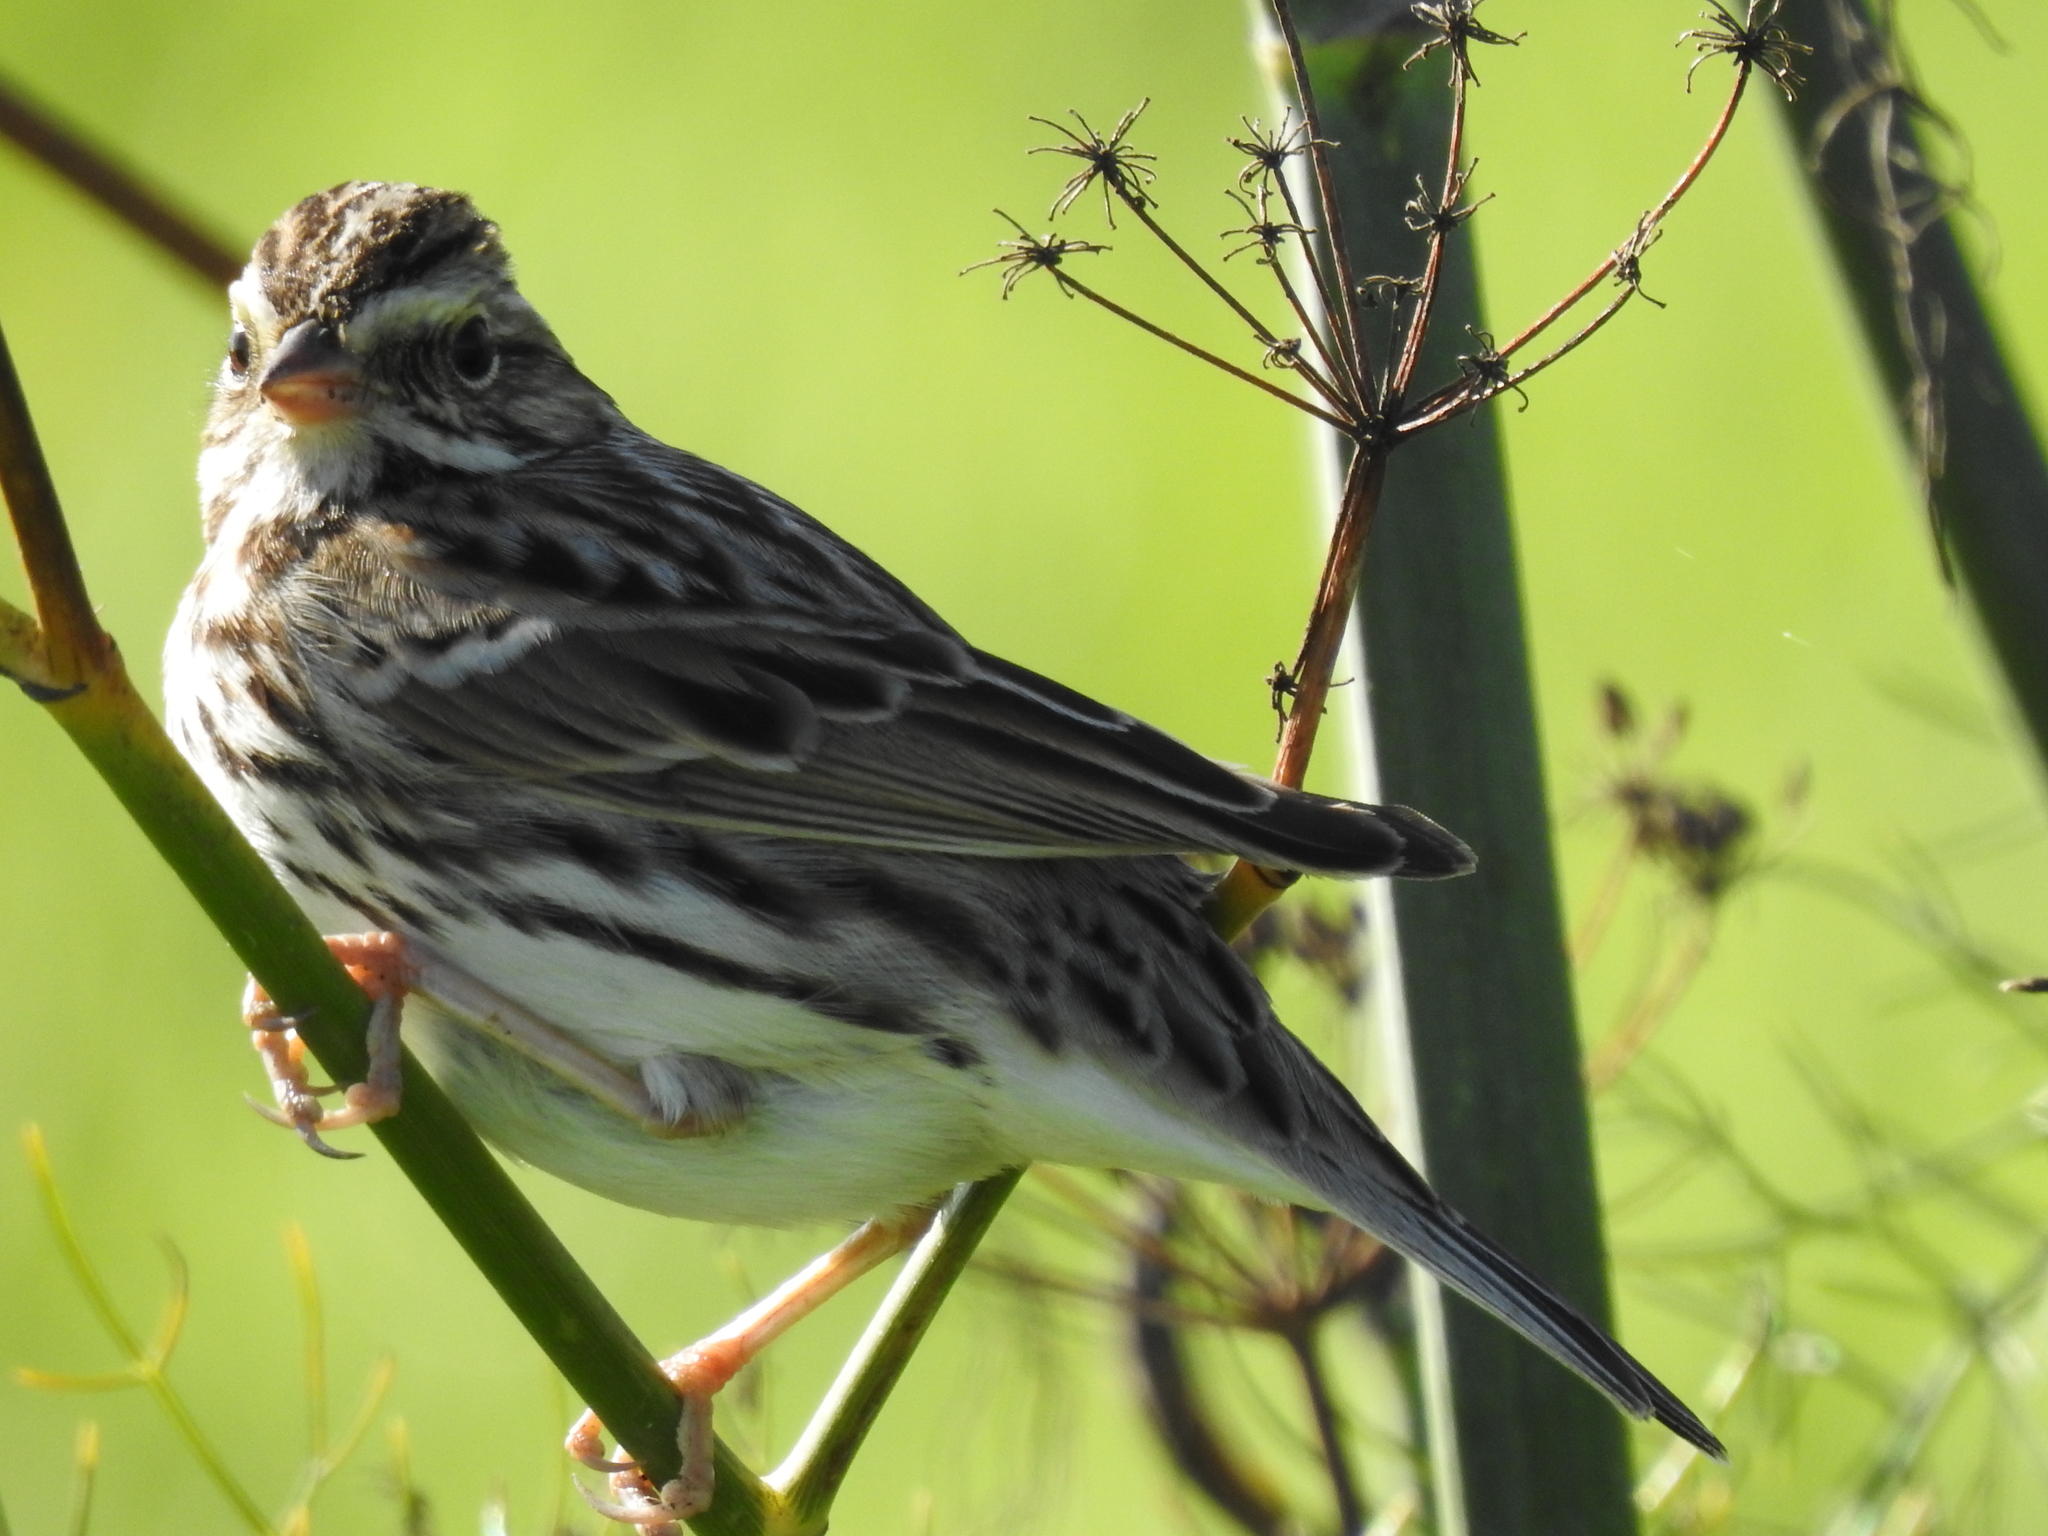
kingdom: Animalia
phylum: Chordata
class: Aves
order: Passeriformes
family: Passerellidae
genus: Passerculus
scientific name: Passerculus sandwichensis
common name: Savannah sparrow
